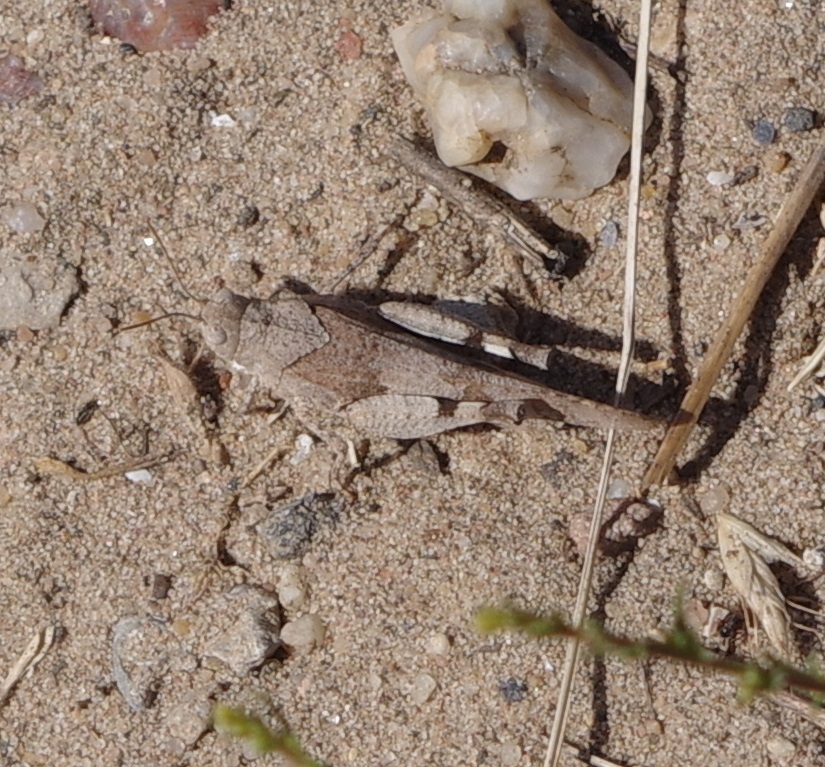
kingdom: Animalia
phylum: Arthropoda
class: Insecta
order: Orthoptera
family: Acrididae
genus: Oedipoda
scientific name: Oedipoda caerulescens
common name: Blue-winged grasshopper
